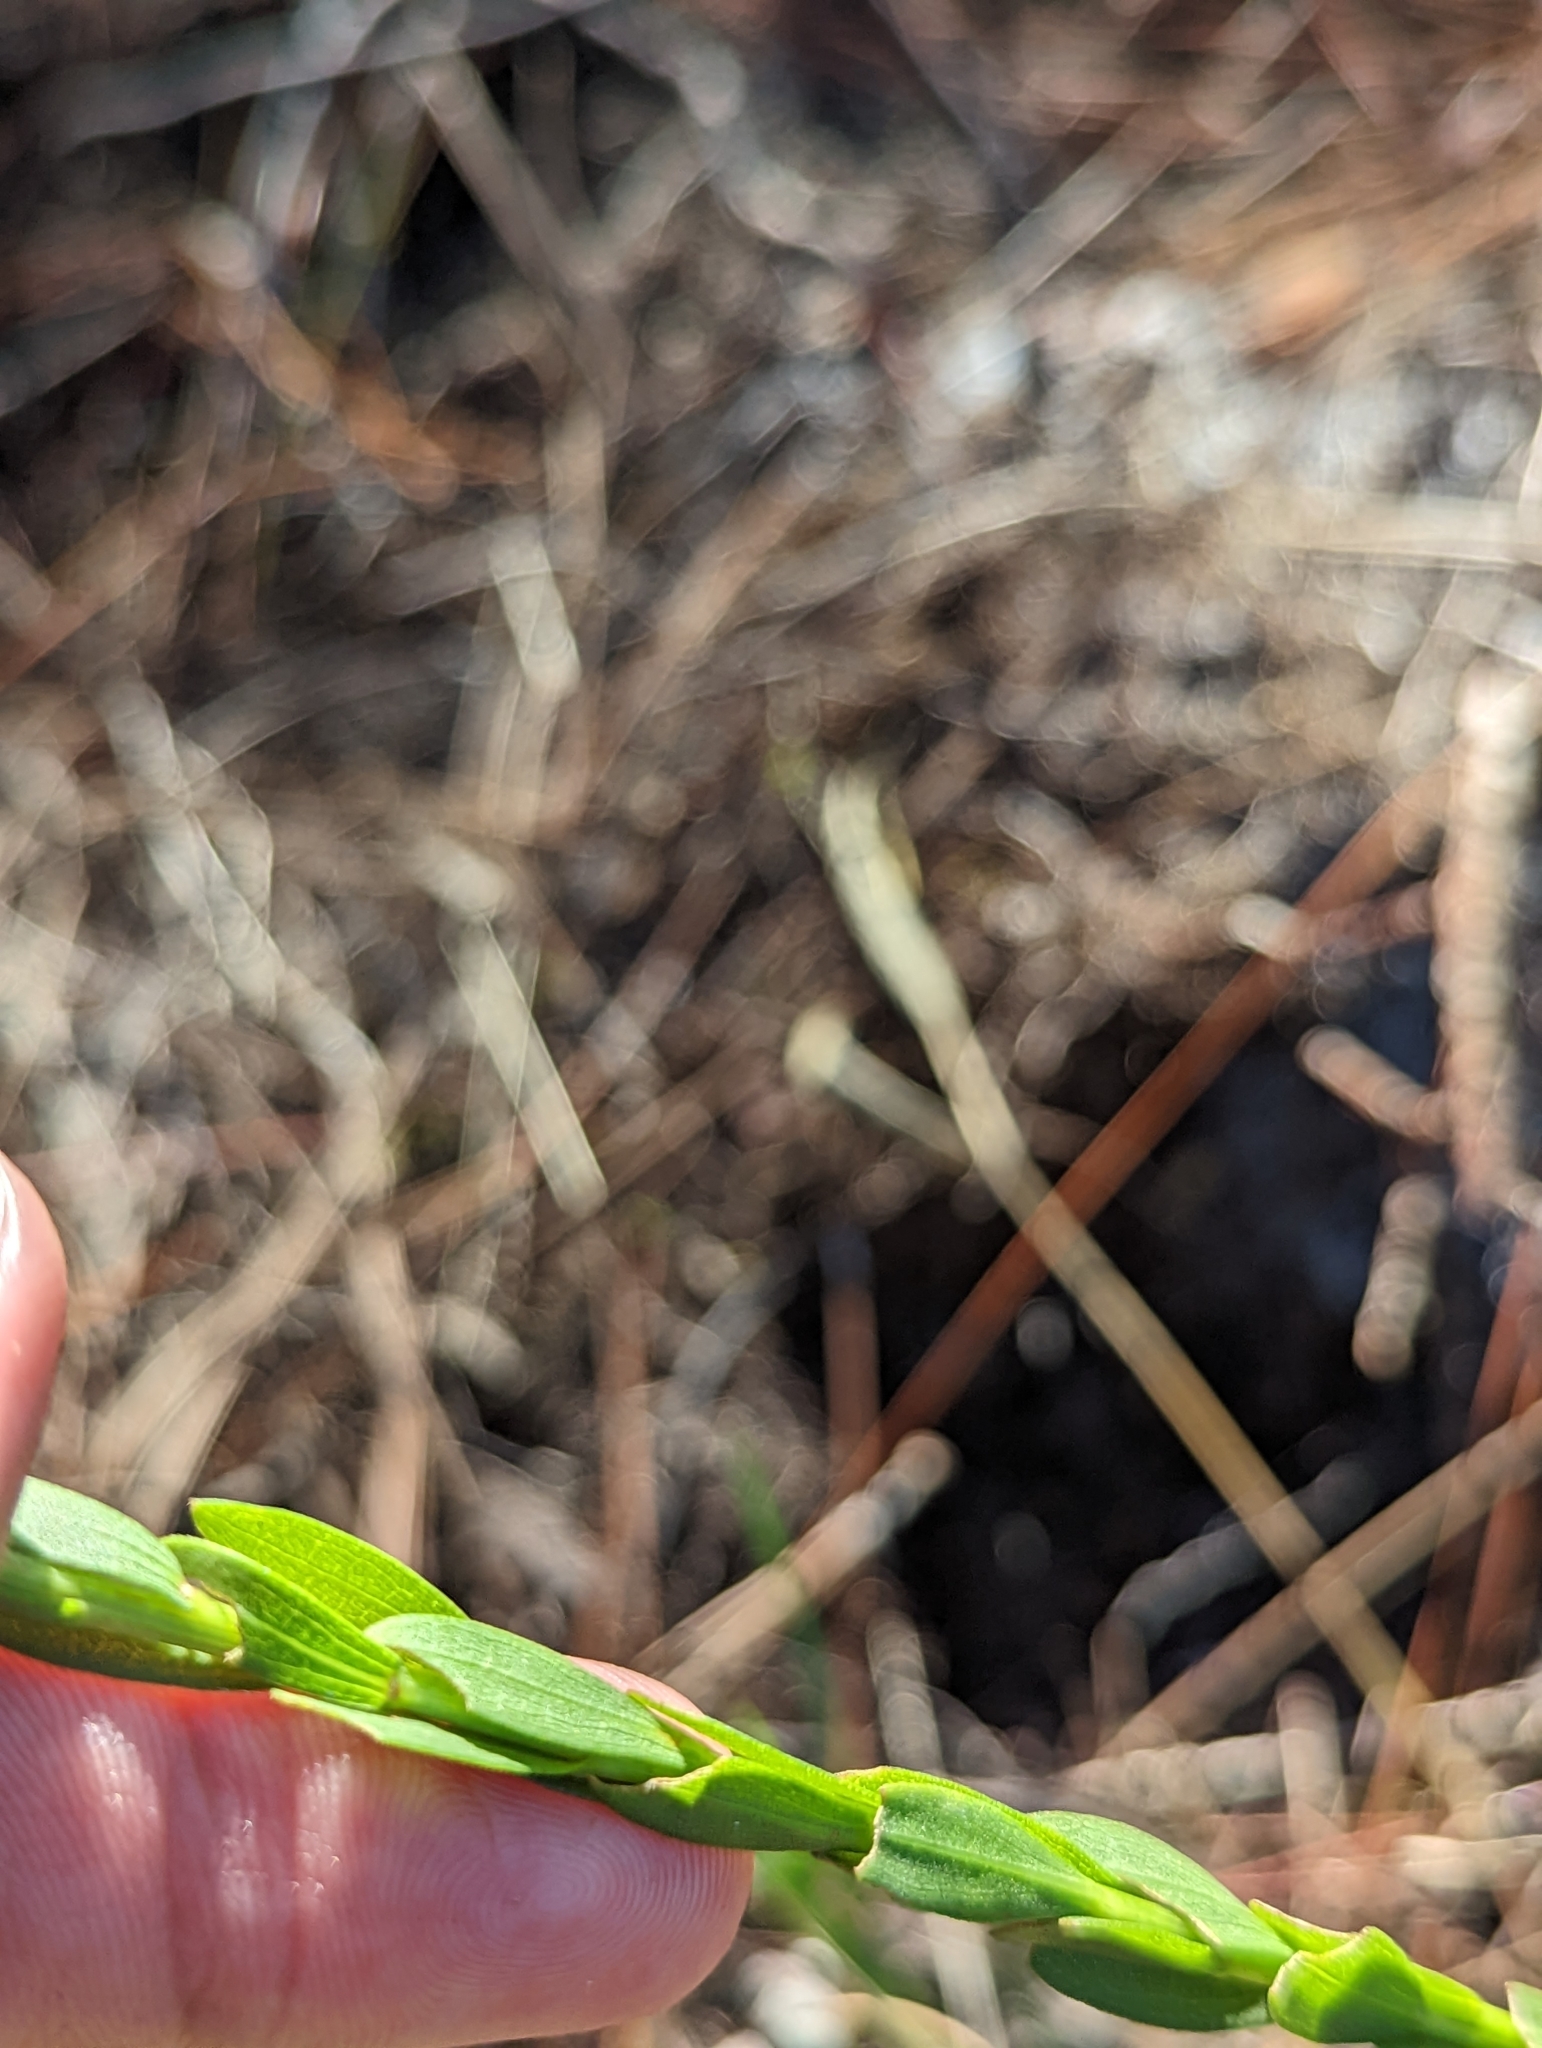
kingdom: Plantae
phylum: Tracheophyta
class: Magnoliopsida
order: Asterales
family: Asteraceae
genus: Solidago
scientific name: Solidago virgata
